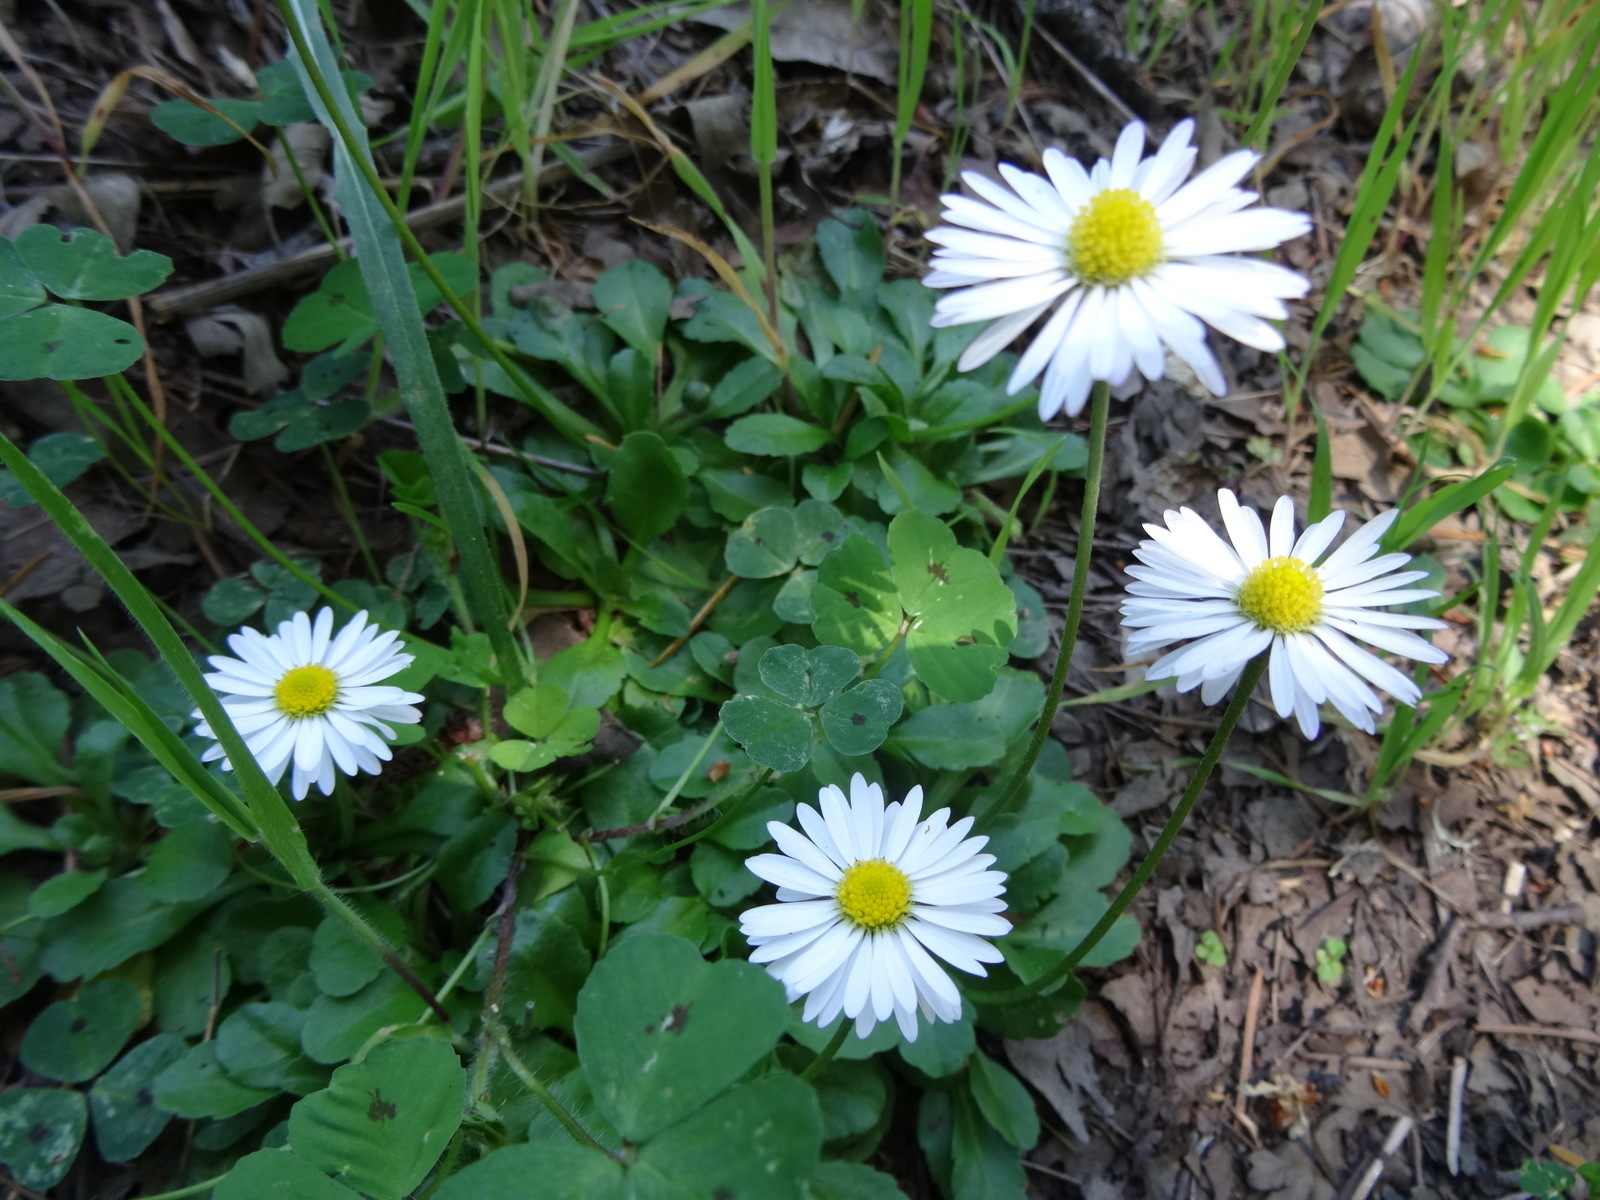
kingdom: Plantae
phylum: Tracheophyta
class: Magnoliopsida
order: Asterales
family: Asteraceae
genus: Bellis
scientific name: Bellis perennis
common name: Lawndaisy
